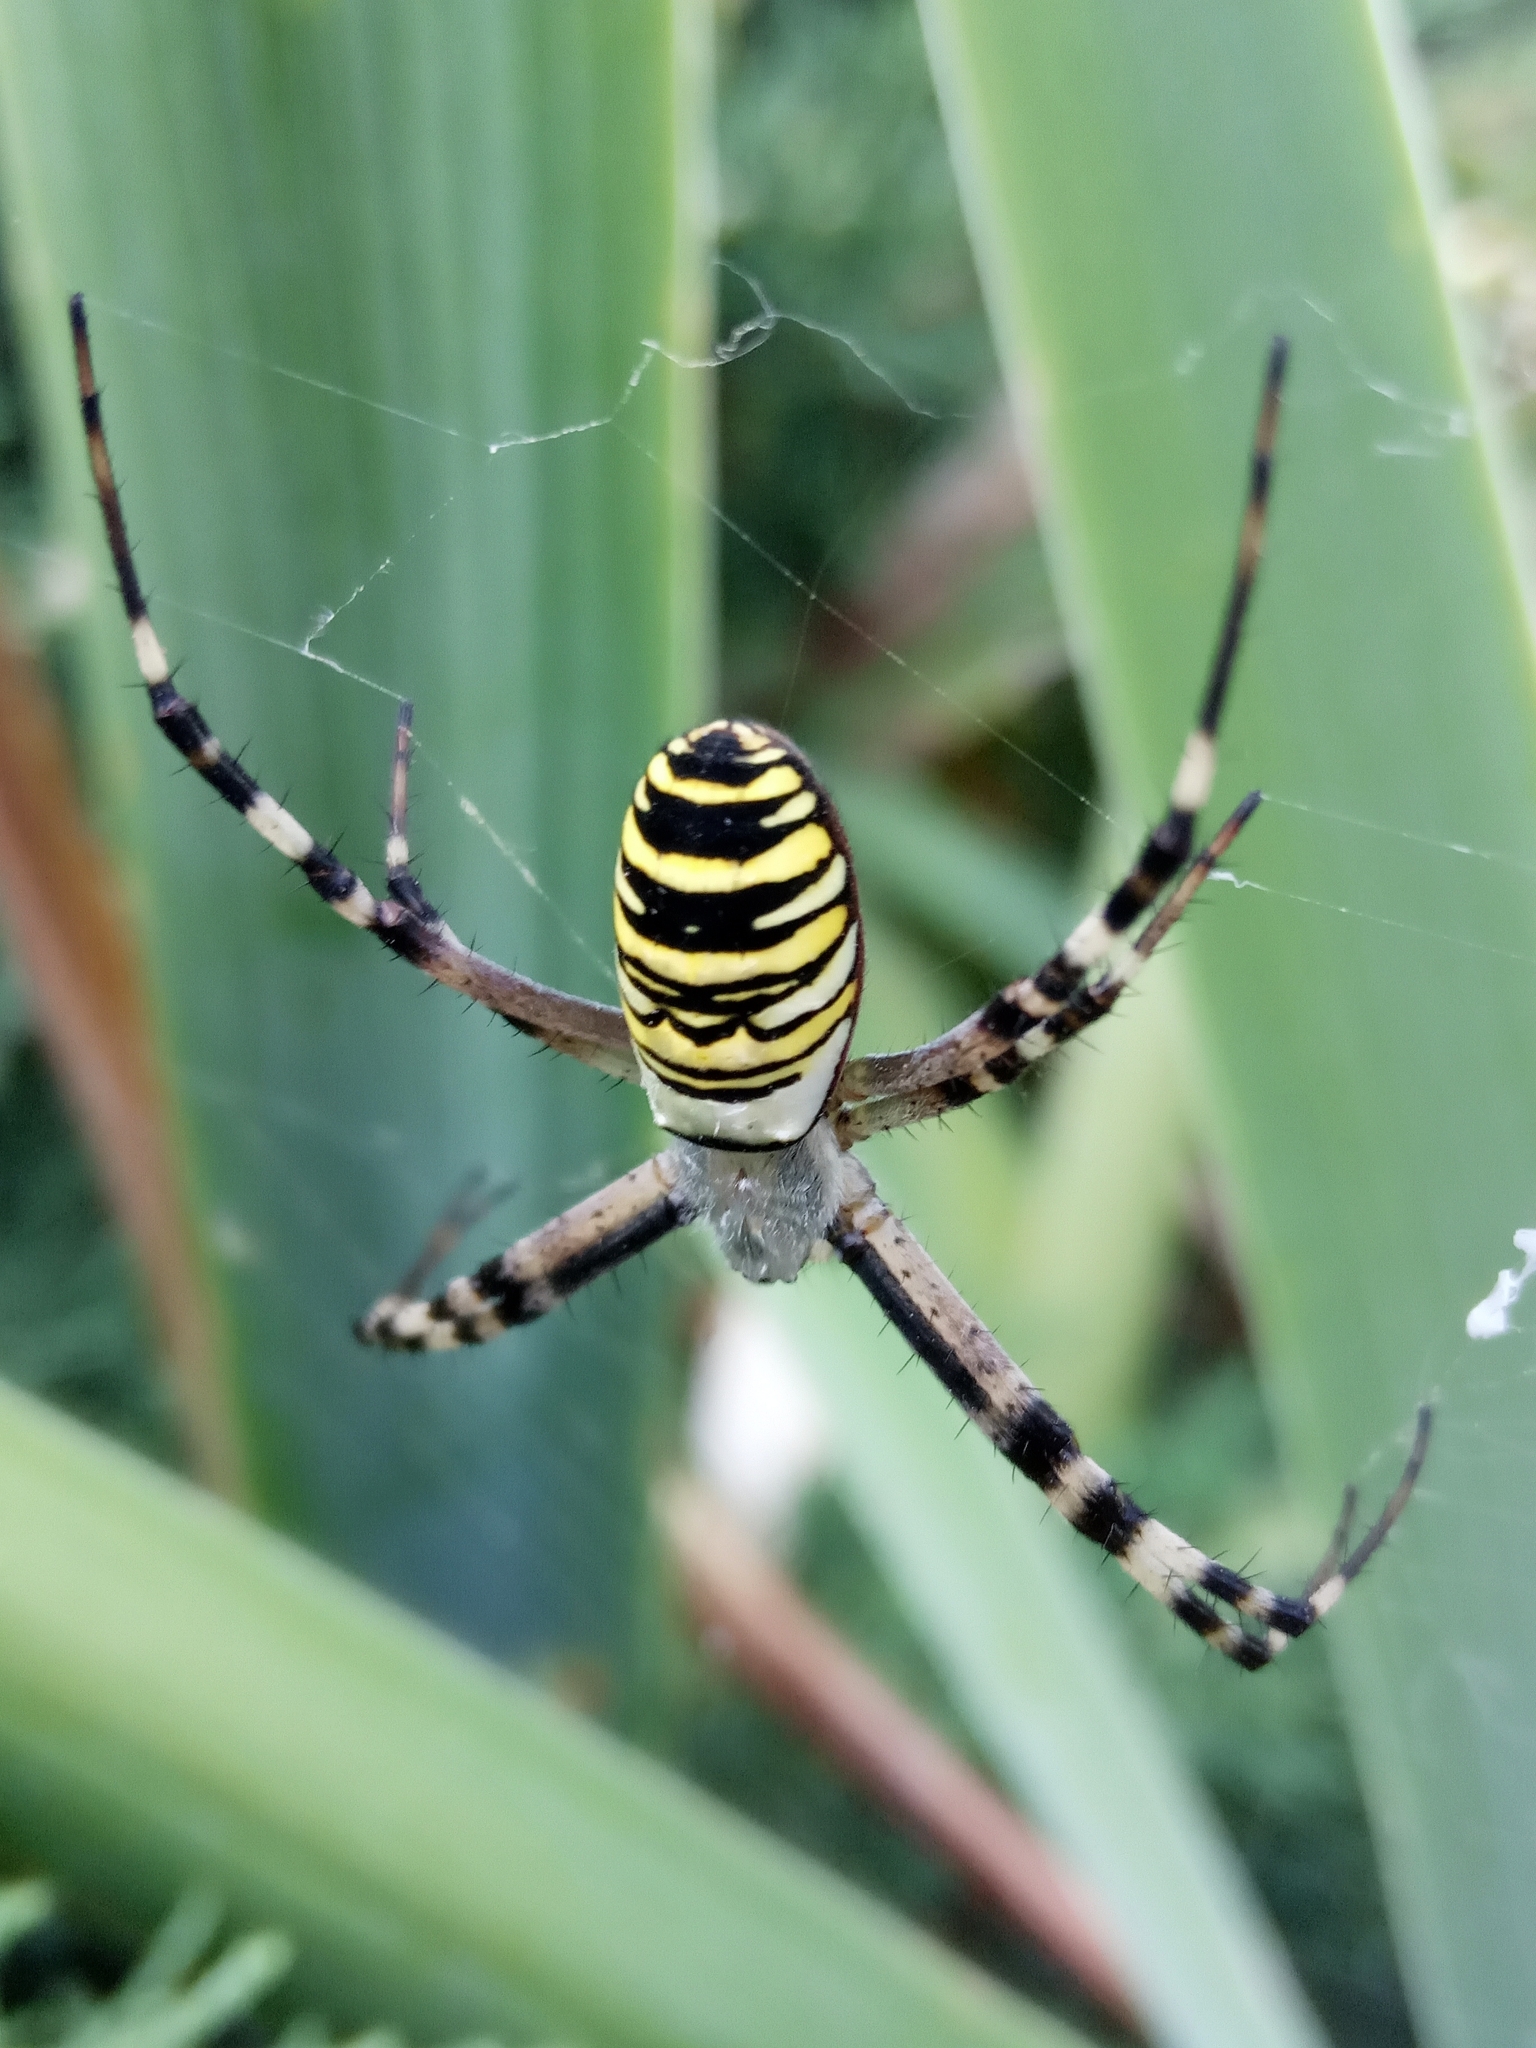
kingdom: Animalia
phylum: Arthropoda
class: Arachnida
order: Araneae
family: Araneidae
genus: Argiope
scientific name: Argiope bruennichi
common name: Wasp spider
